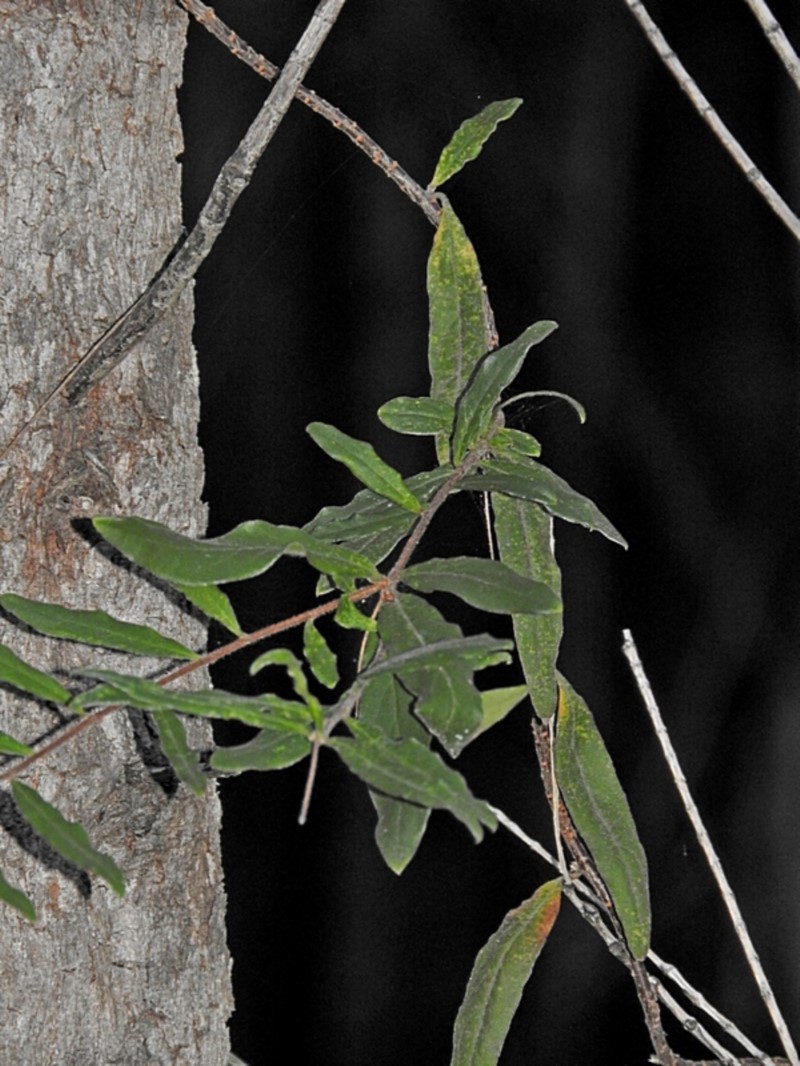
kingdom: Plantae
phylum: Tracheophyta
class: Magnoliopsida
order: Apiales
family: Pittosporaceae
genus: Billardiera
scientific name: Billardiera mutabilis
